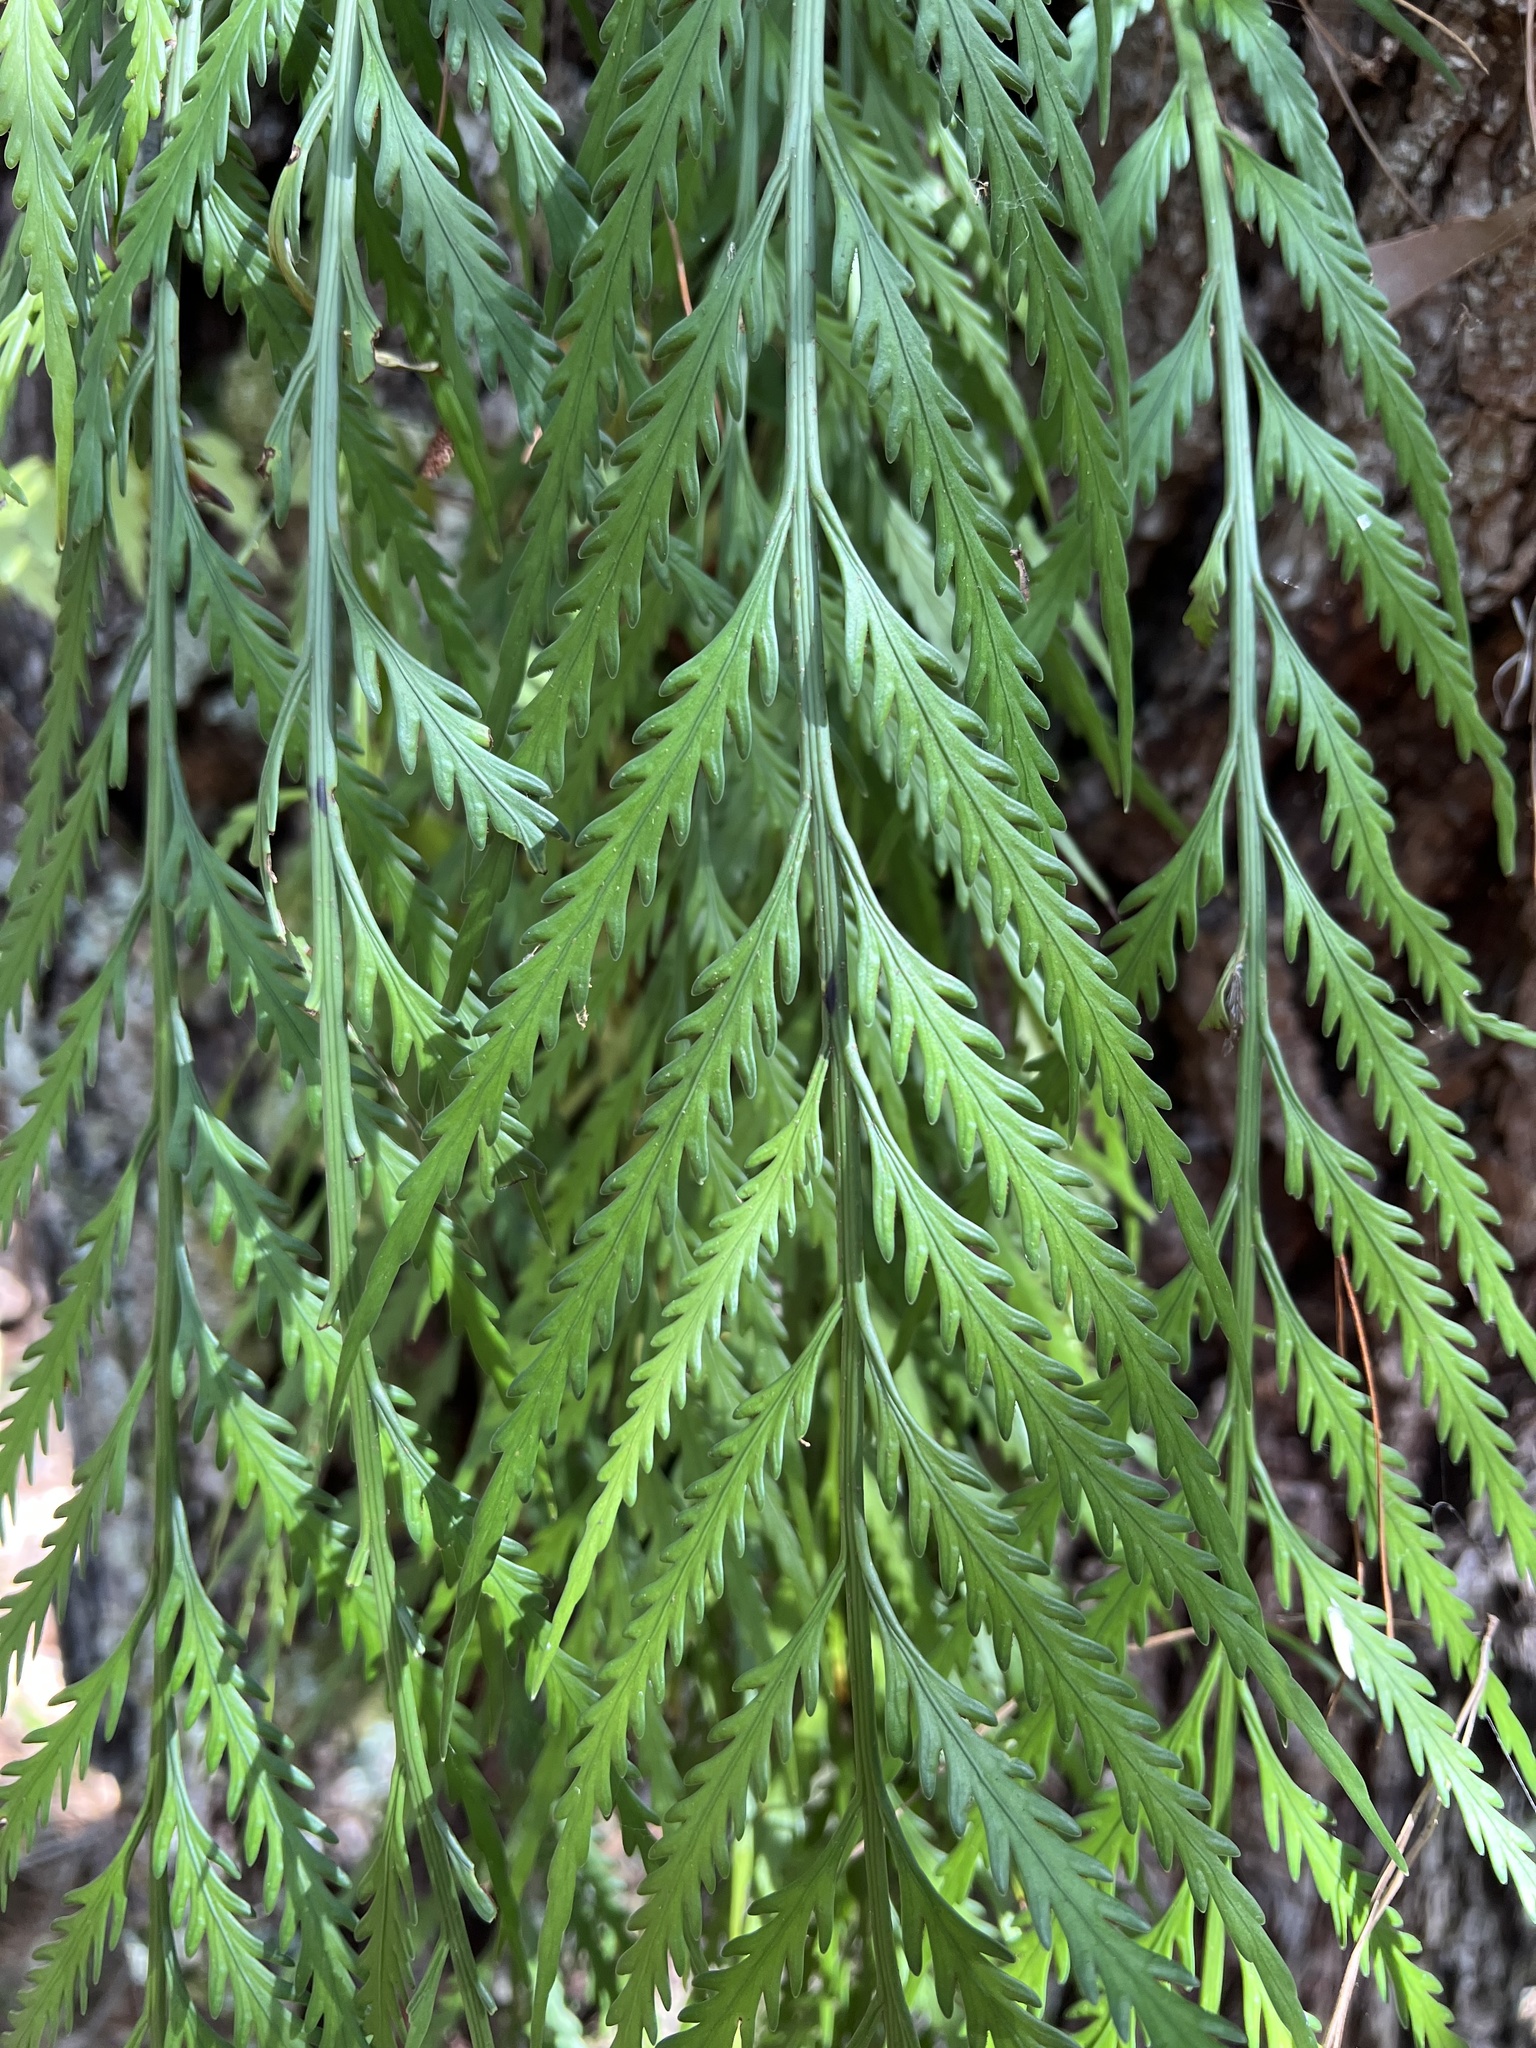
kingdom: Plantae
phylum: Tracheophyta
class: Polypodiopsida
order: Polypodiales
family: Aspleniaceae
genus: Asplenium
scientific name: Asplenium flaccidum
